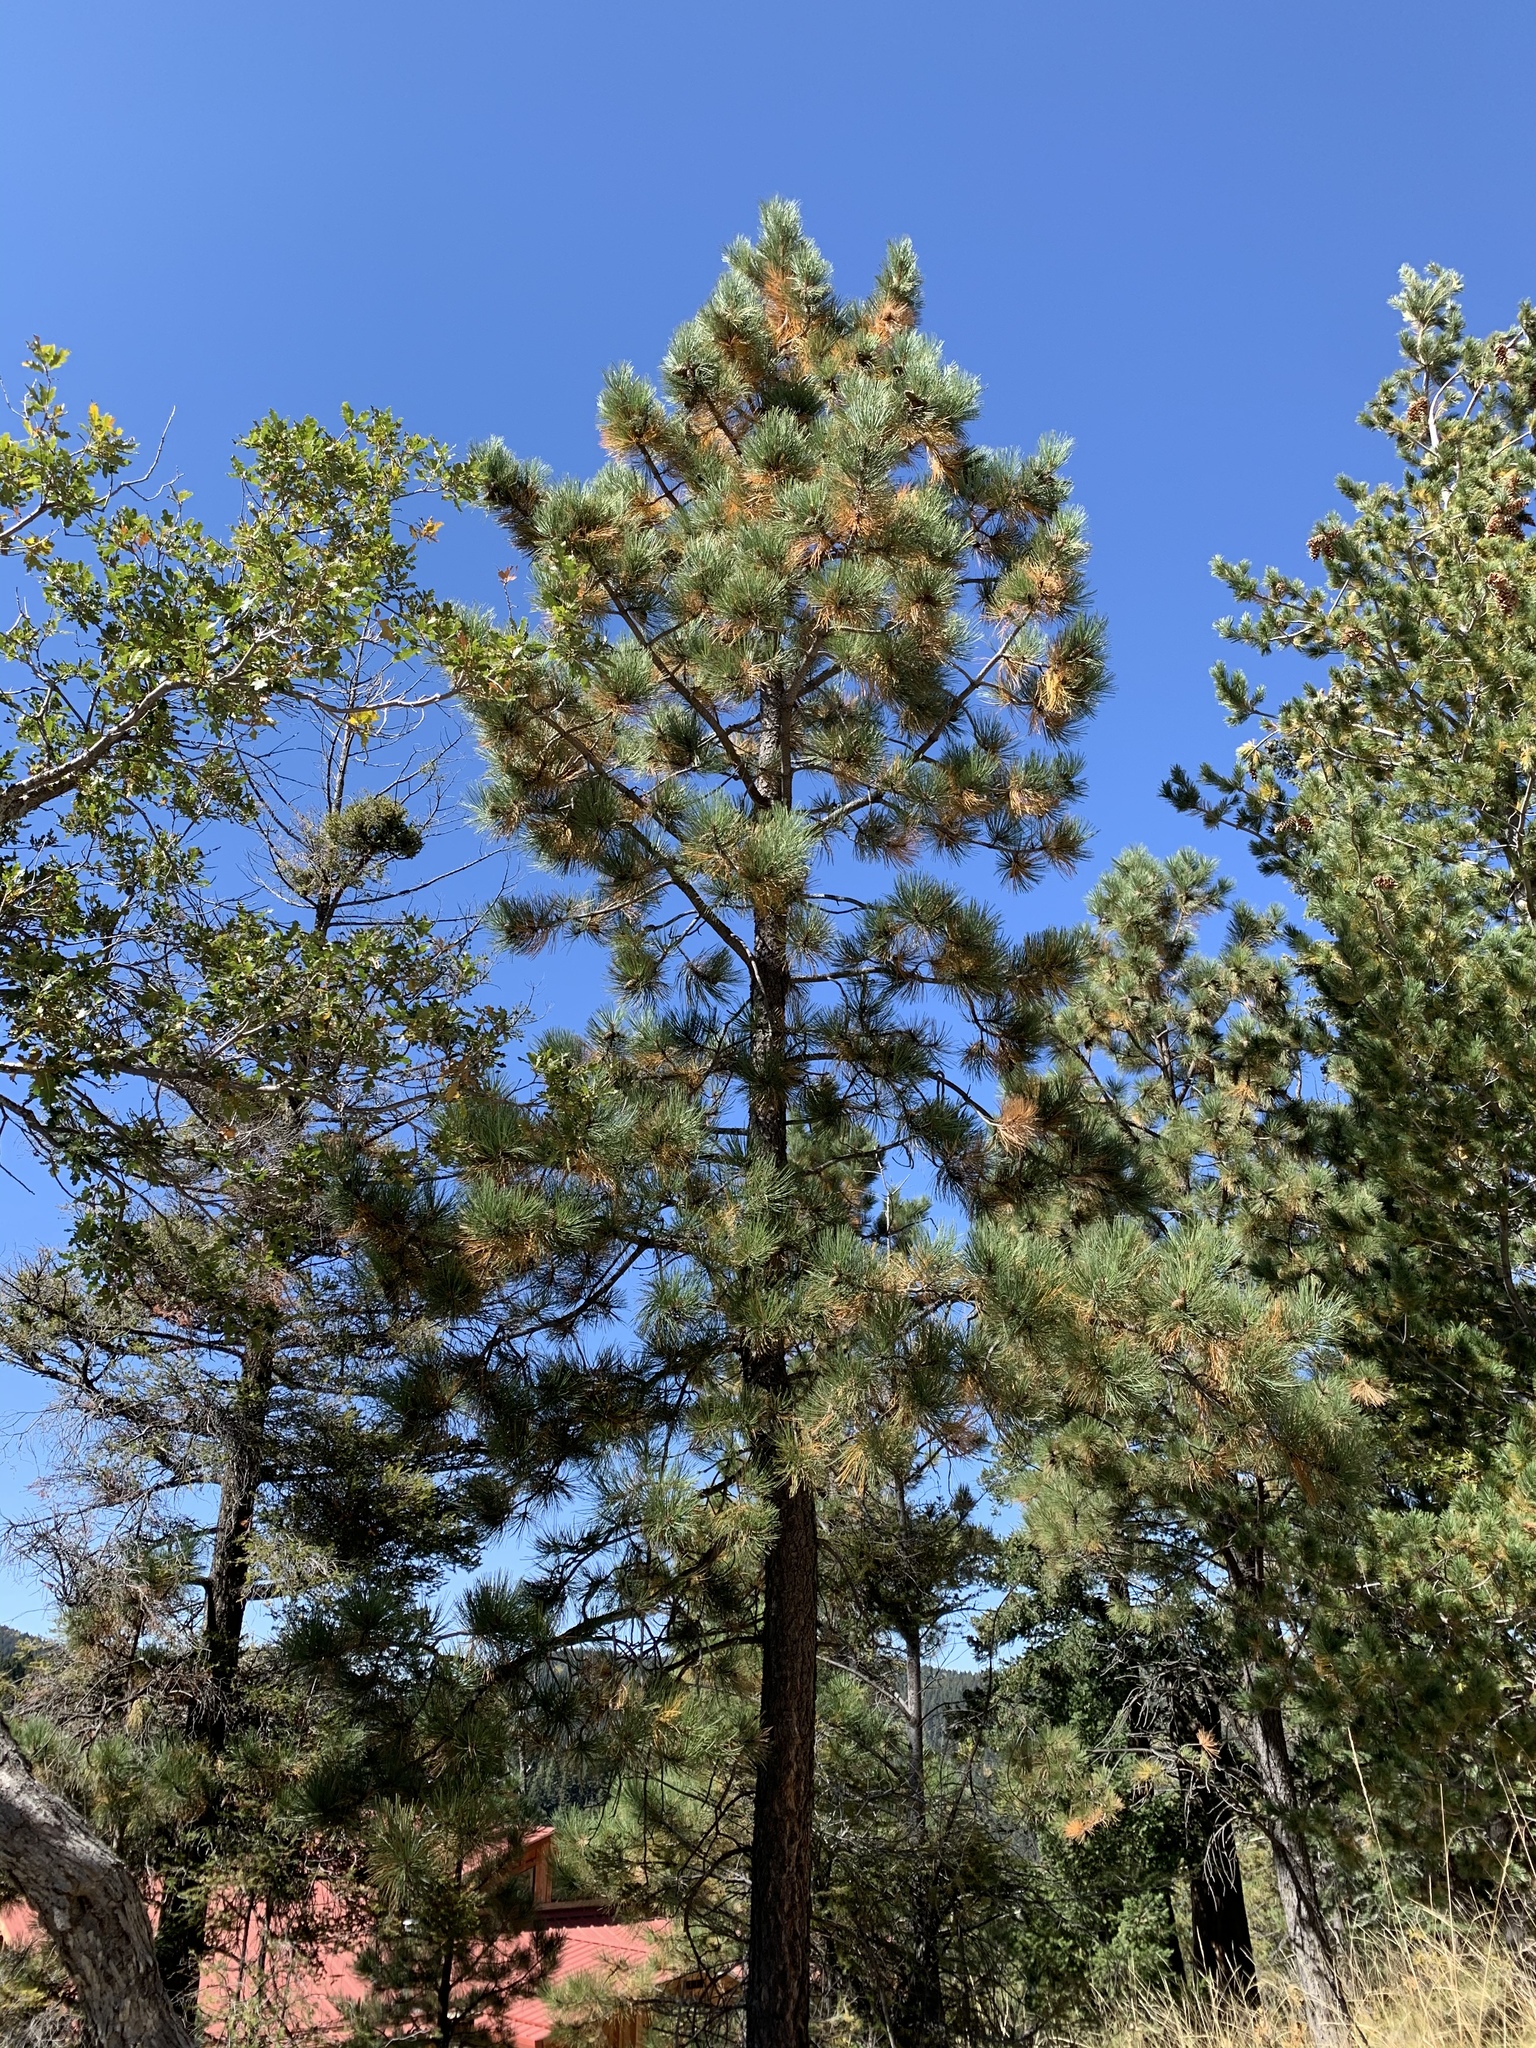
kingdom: Plantae
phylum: Tracheophyta
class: Pinopsida
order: Pinales
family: Pinaceae
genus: Pinus
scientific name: Pinus ponderosa
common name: Western yellow-pine
